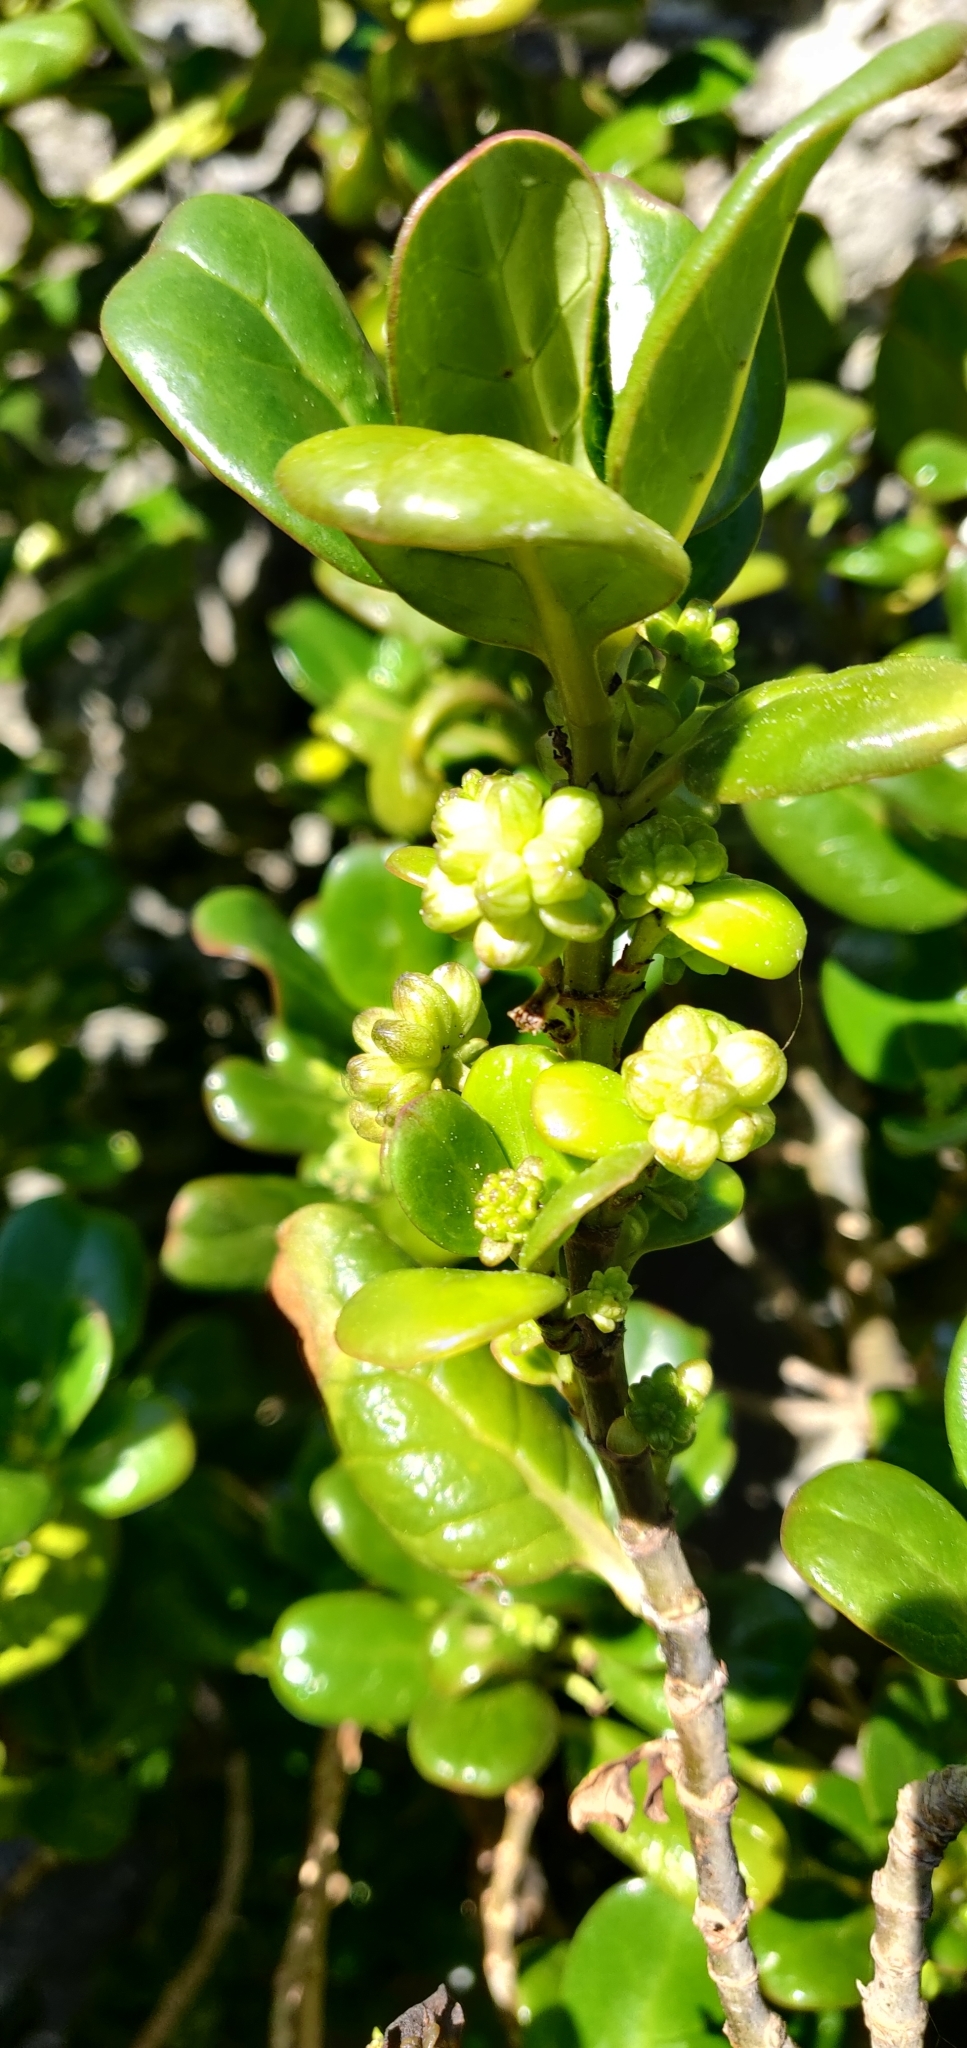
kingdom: Plantae
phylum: Tracheophyta
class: Magnoliopsida
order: Gentianales
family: Rubiaceae
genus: Coprosma
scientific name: Coprosma repens
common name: Tree bedstraw
